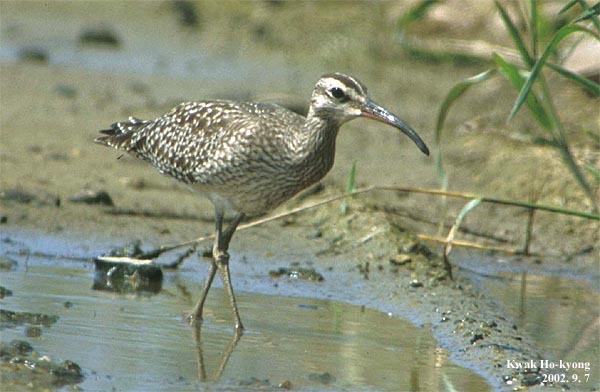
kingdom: Animalia
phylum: Chordata
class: Aves
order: Charadriiformes
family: Scolopacidae
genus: Numenius
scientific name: Numenius phaeopus
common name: Whimbrel
